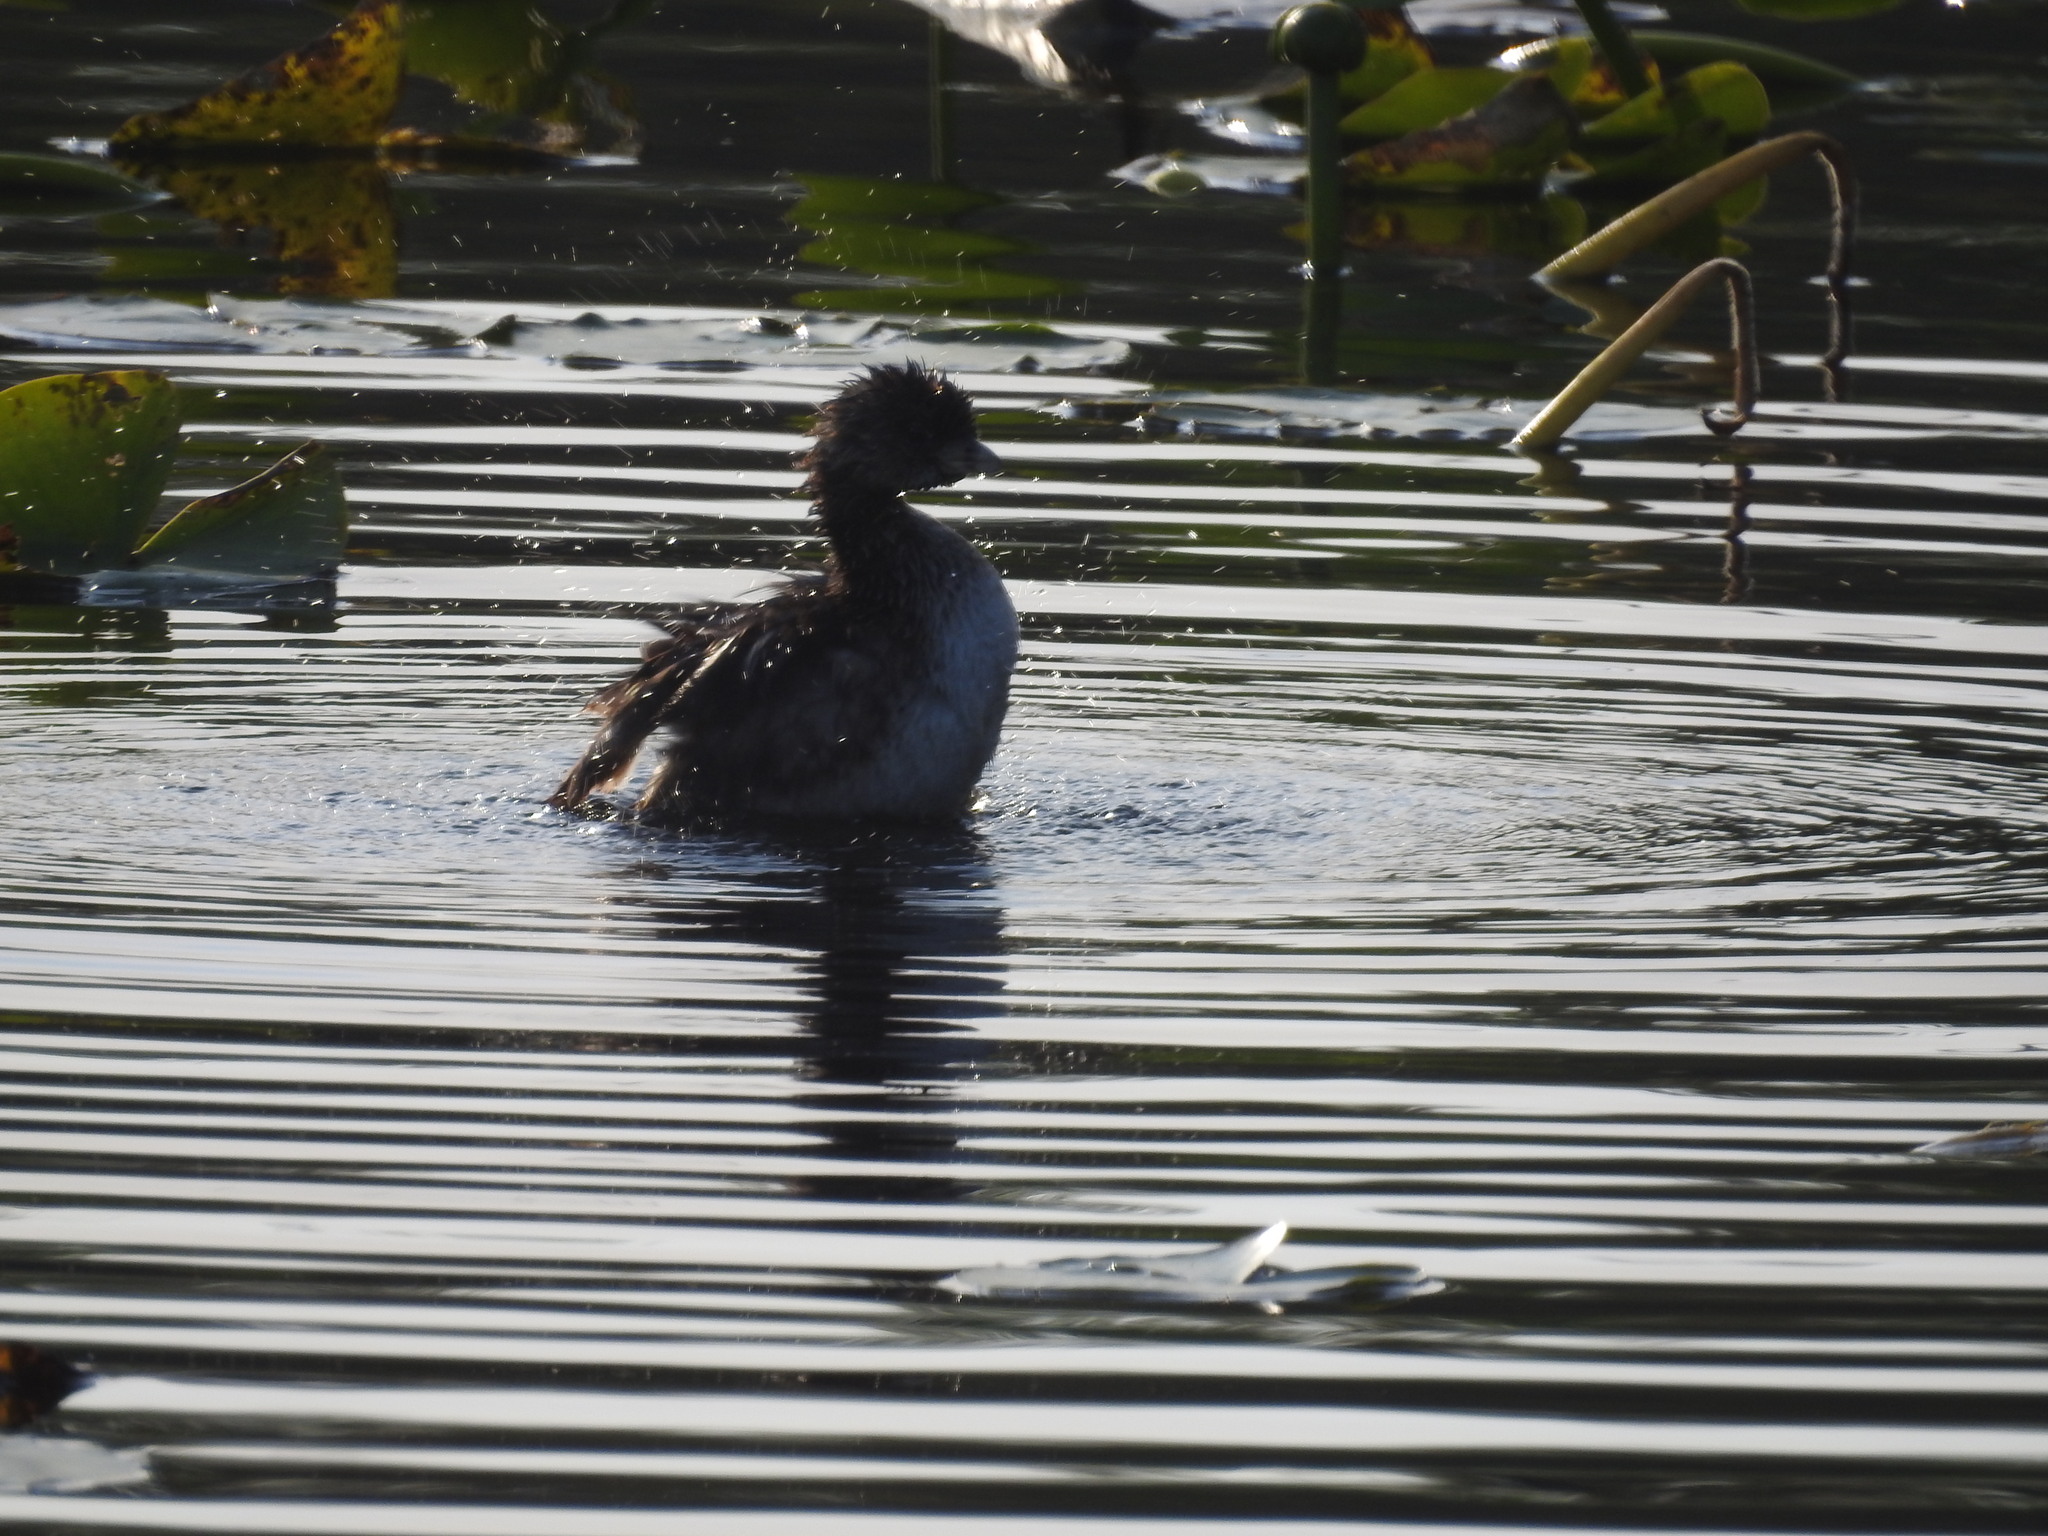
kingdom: Animalia
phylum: Chordata
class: Aves
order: Podicipediformes
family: Podicipedidae
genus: Podilymbus
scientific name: Podilymbus podiceps
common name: Pied-billed grebe
